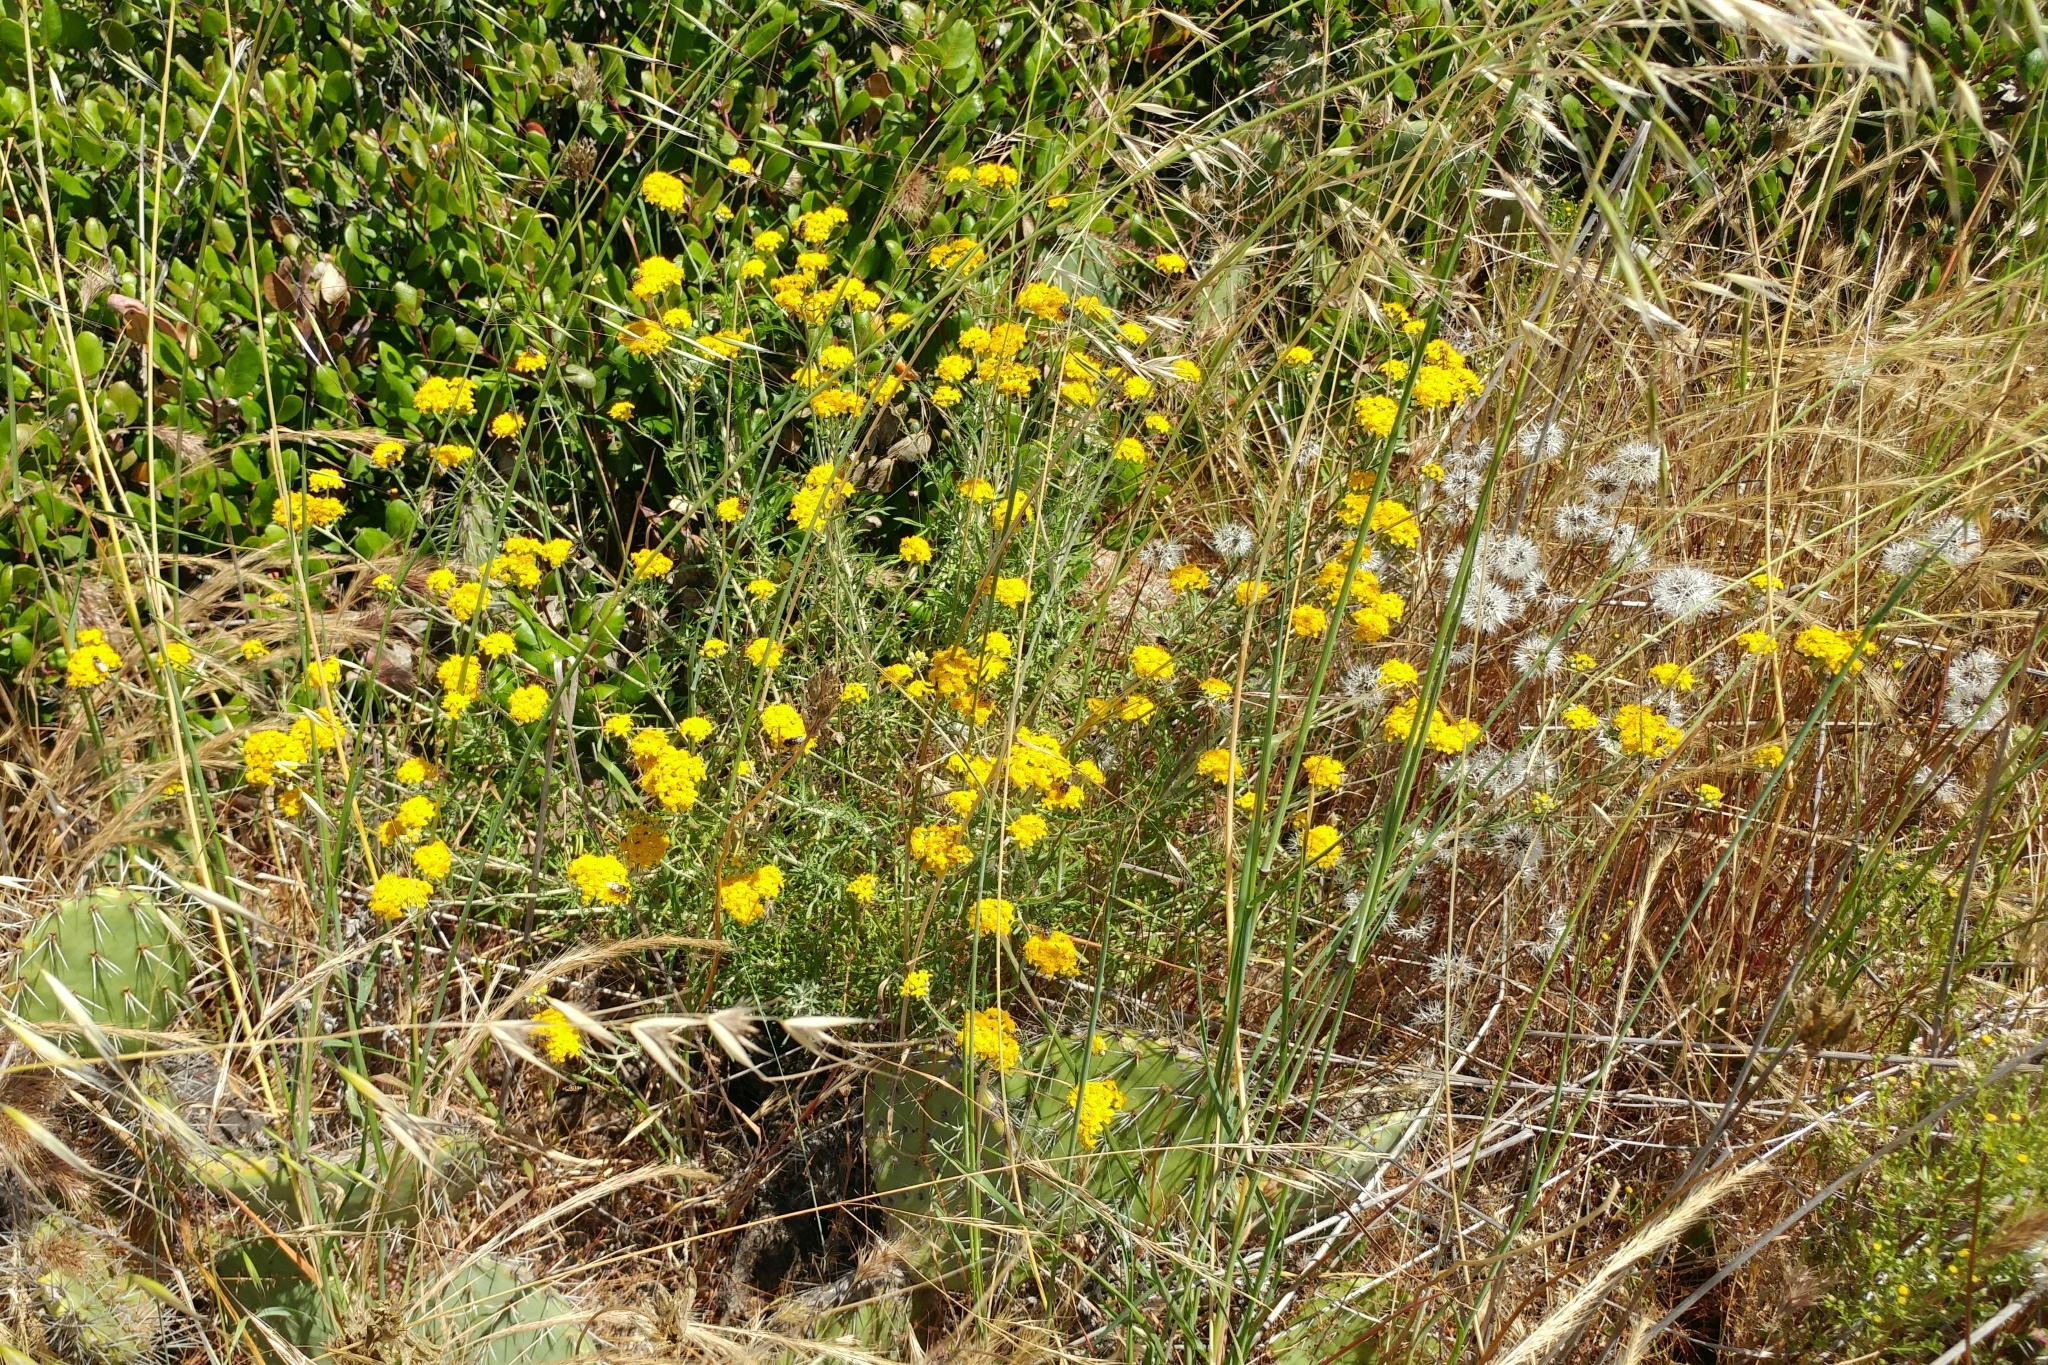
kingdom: Plantae
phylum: Tracheophyta
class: Magnoliopsida
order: Asterales
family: Asteraceae
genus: Eriophyllum
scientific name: Eriophyllum confertiflorum
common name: Golden-yarrow
